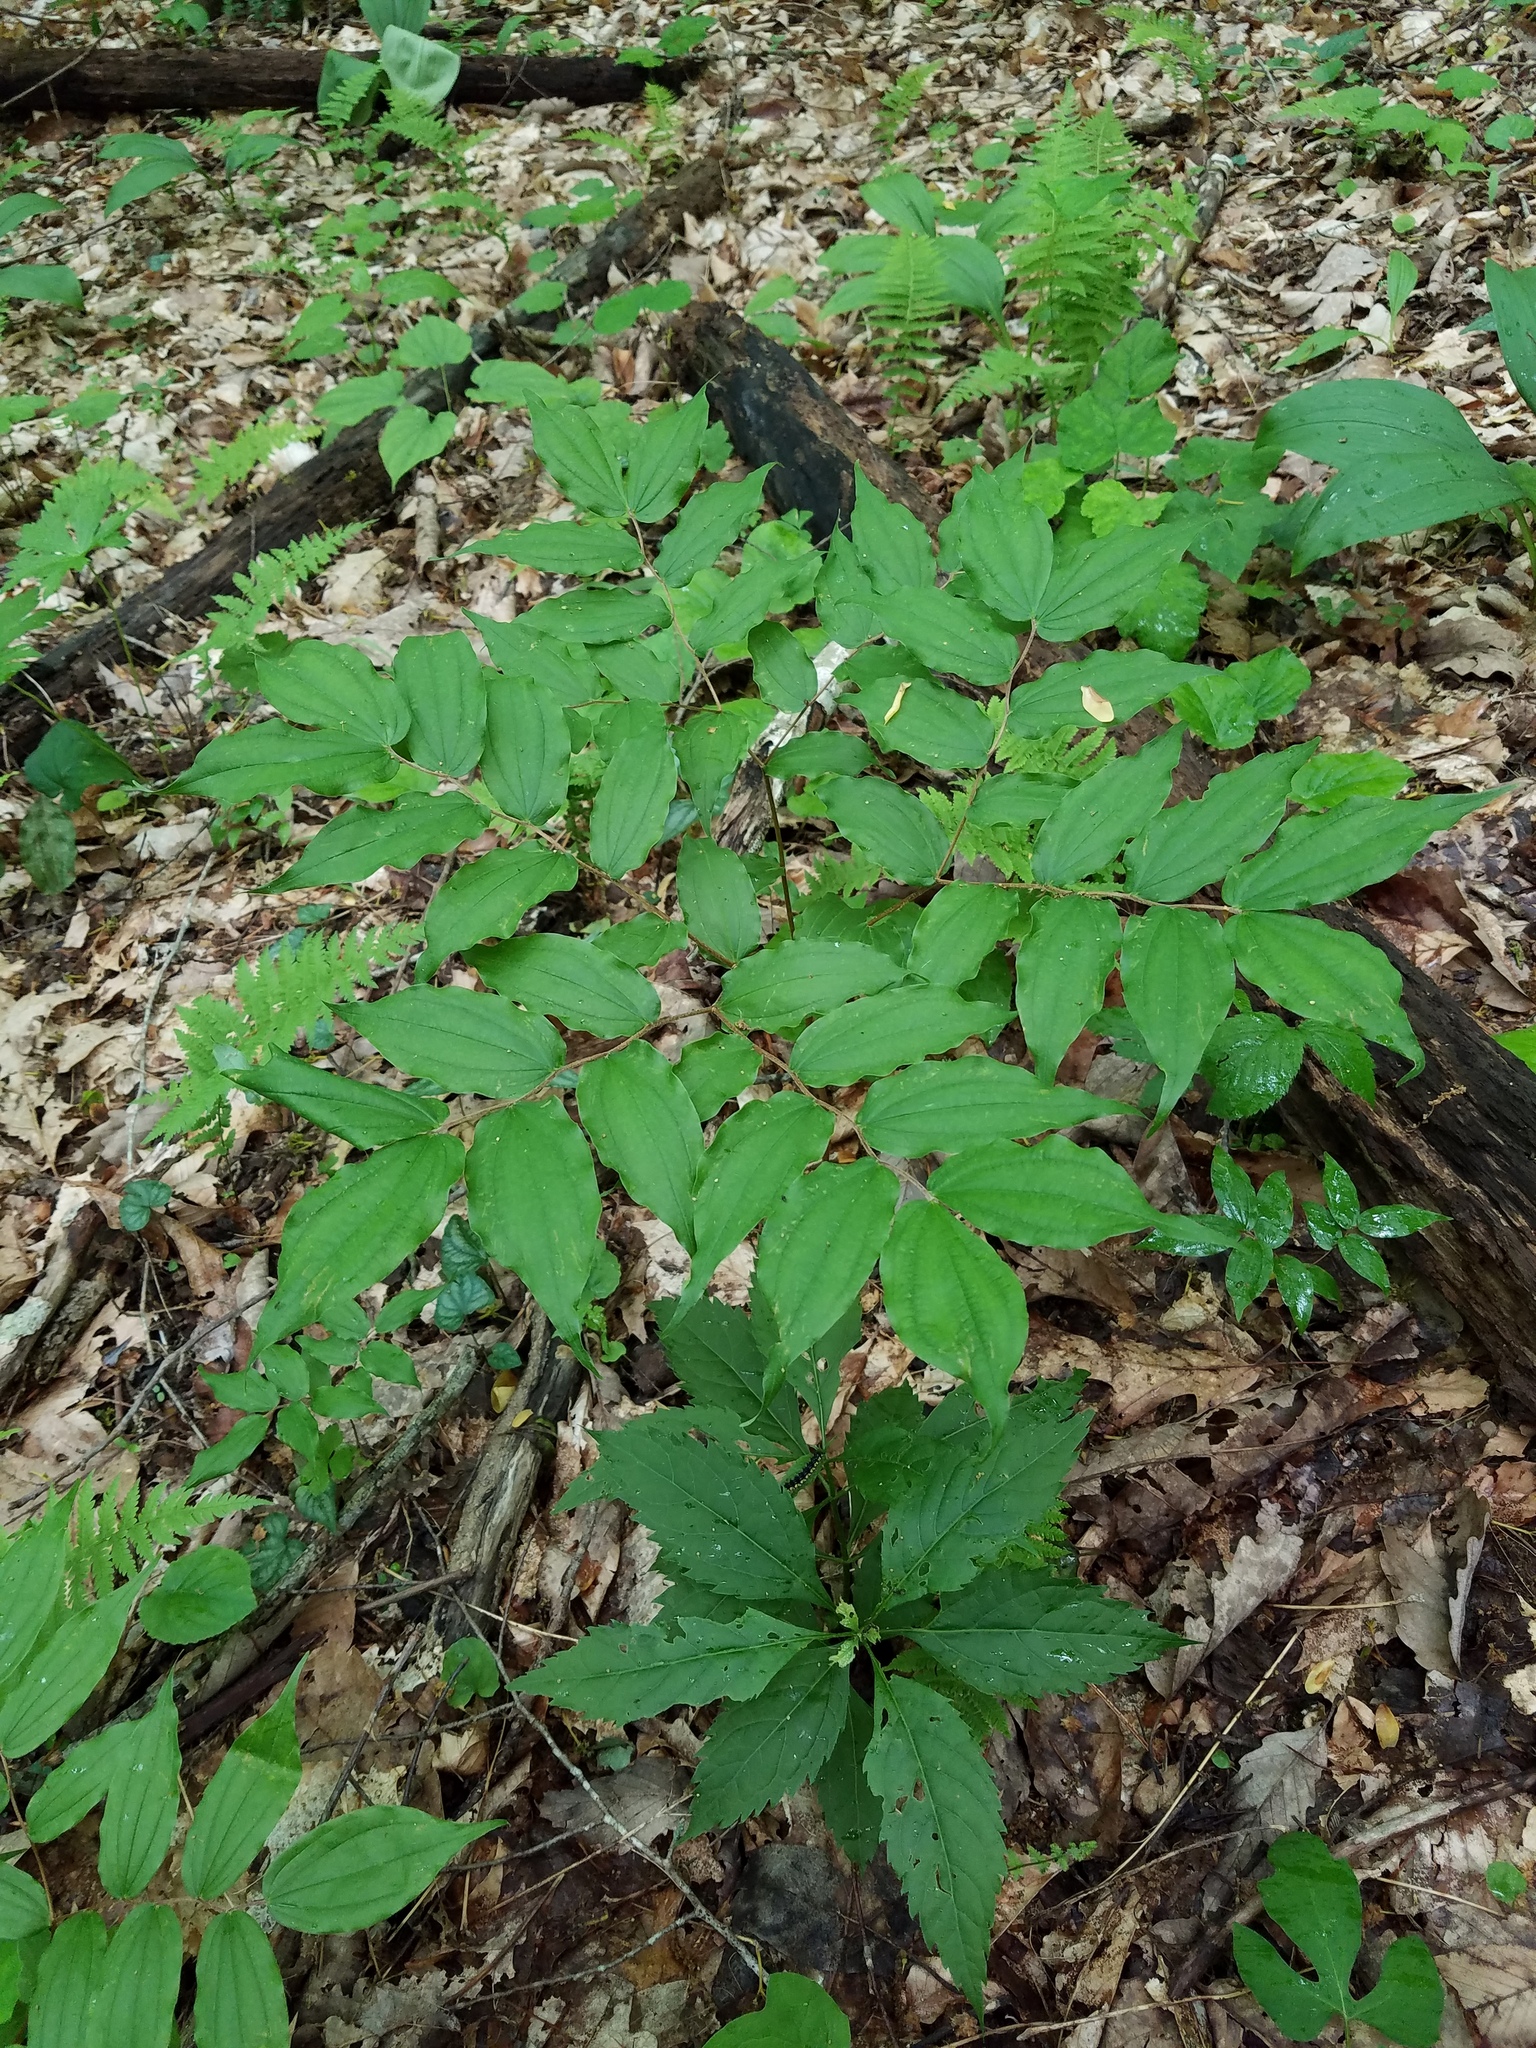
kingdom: Plantae
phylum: Tracheophyta
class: Liliopsida
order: Liliales
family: Liliaceae
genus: Prosartes
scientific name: Prosartes lanuginosa
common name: Hairy mandarin
